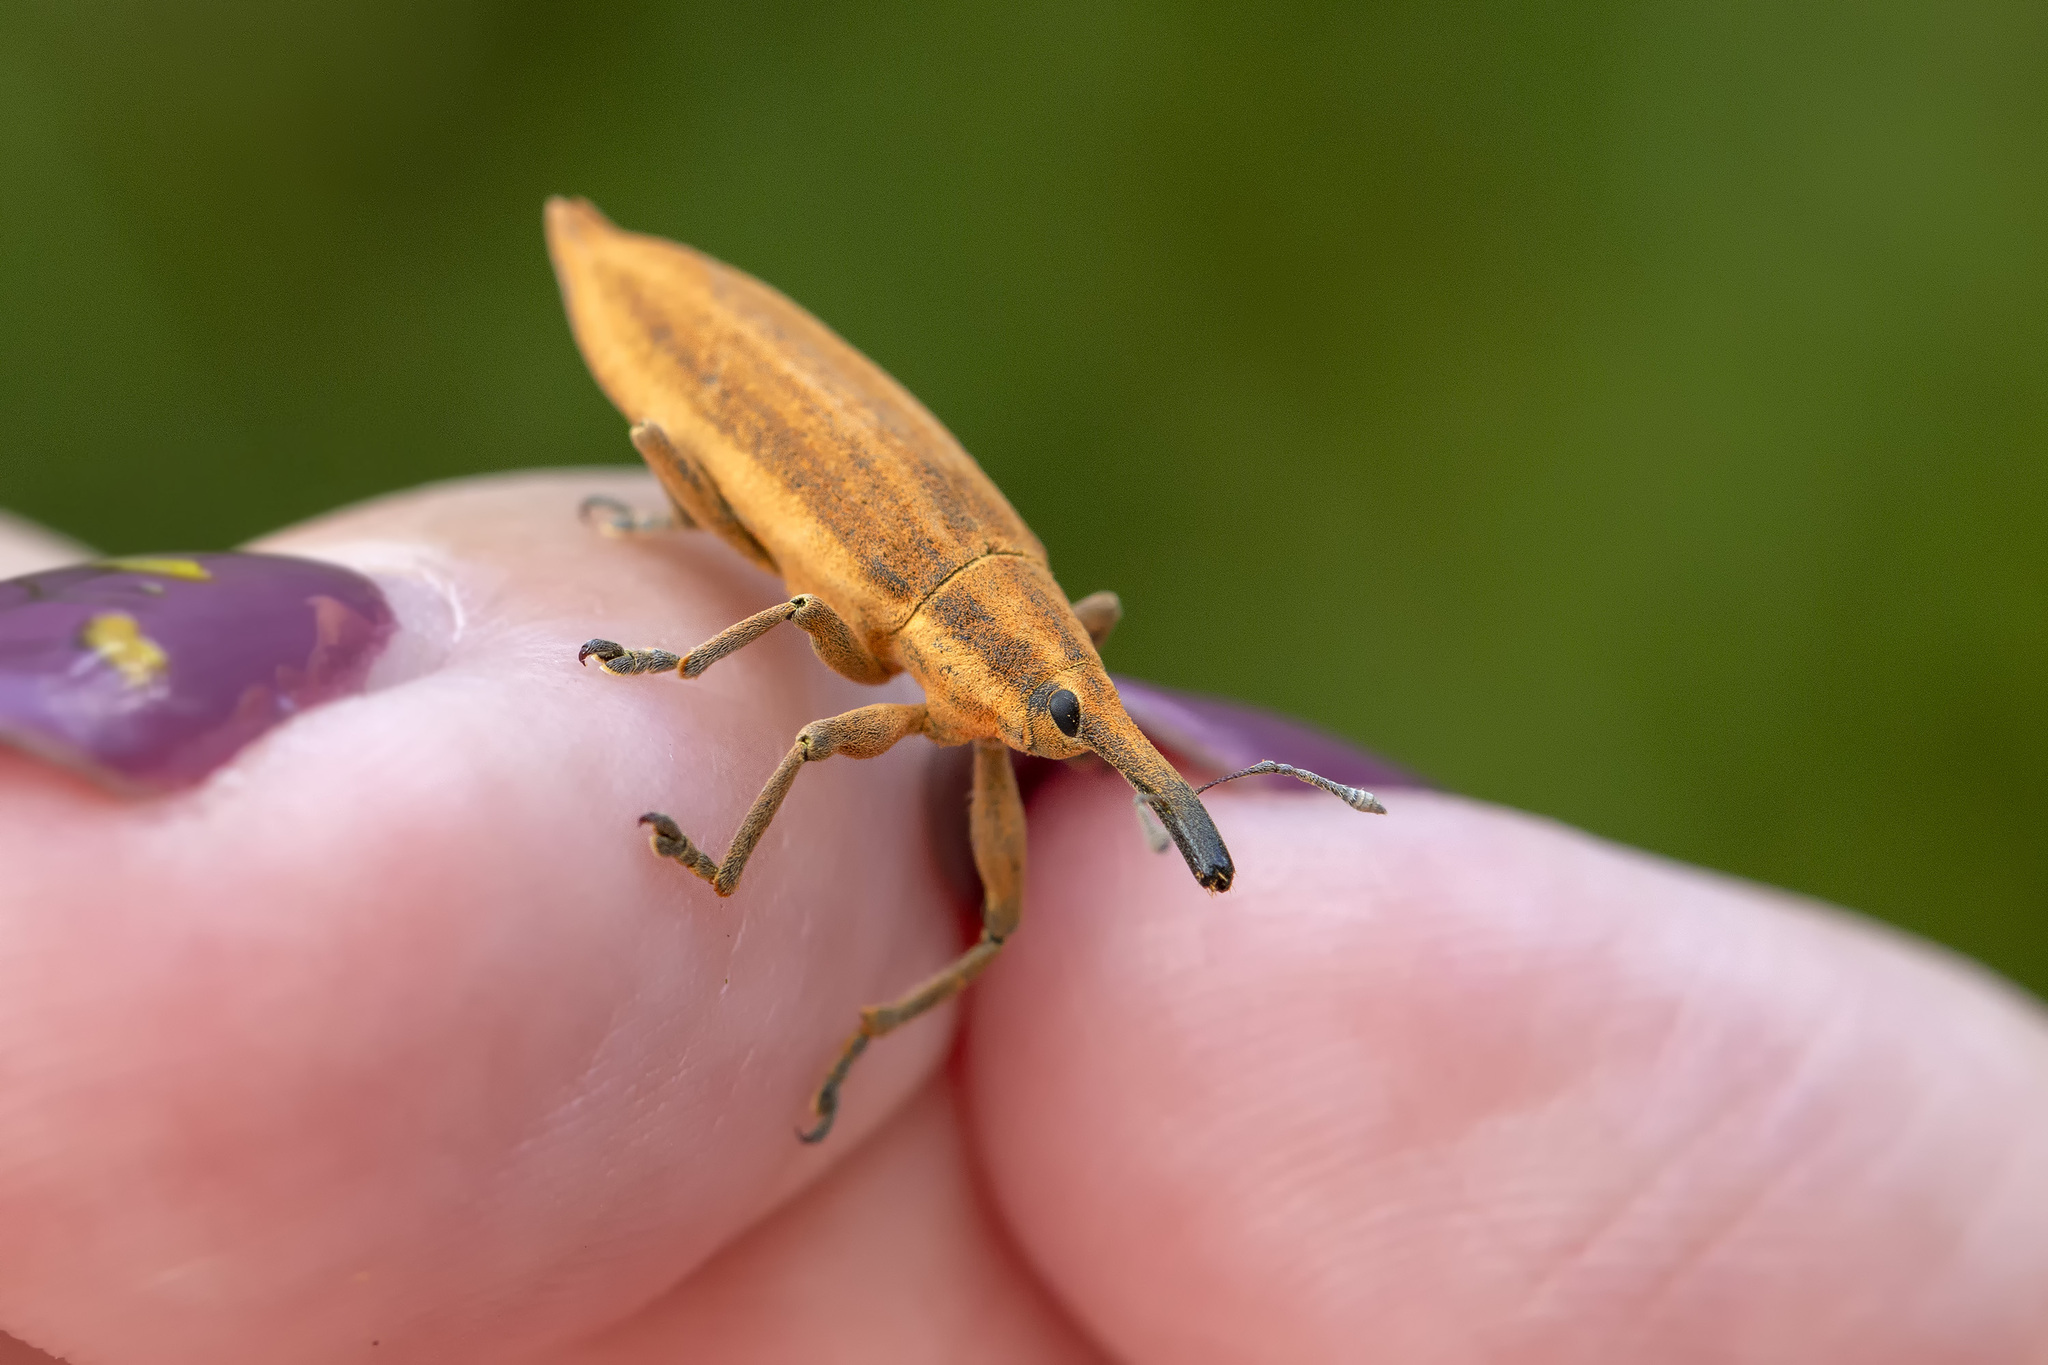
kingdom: Animalia
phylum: Arthropoda
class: Insecta
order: Coleoptera
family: Curculionidae
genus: Lixus
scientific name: Lixus iridis
